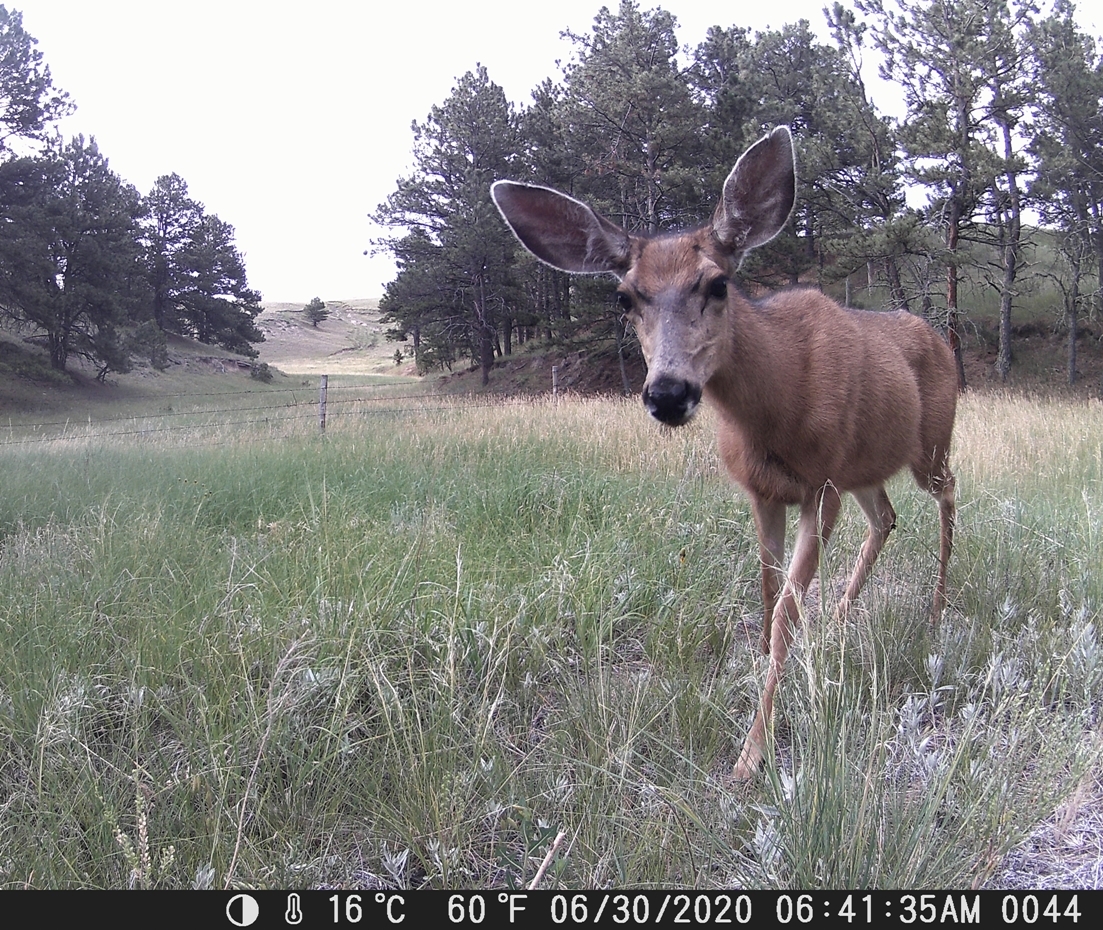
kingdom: Animalia
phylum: Chordata
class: Mammalia
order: Artiodactyla
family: Cervidae
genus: Odocoileus
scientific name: Odocoileus hemionus
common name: Mule deer
